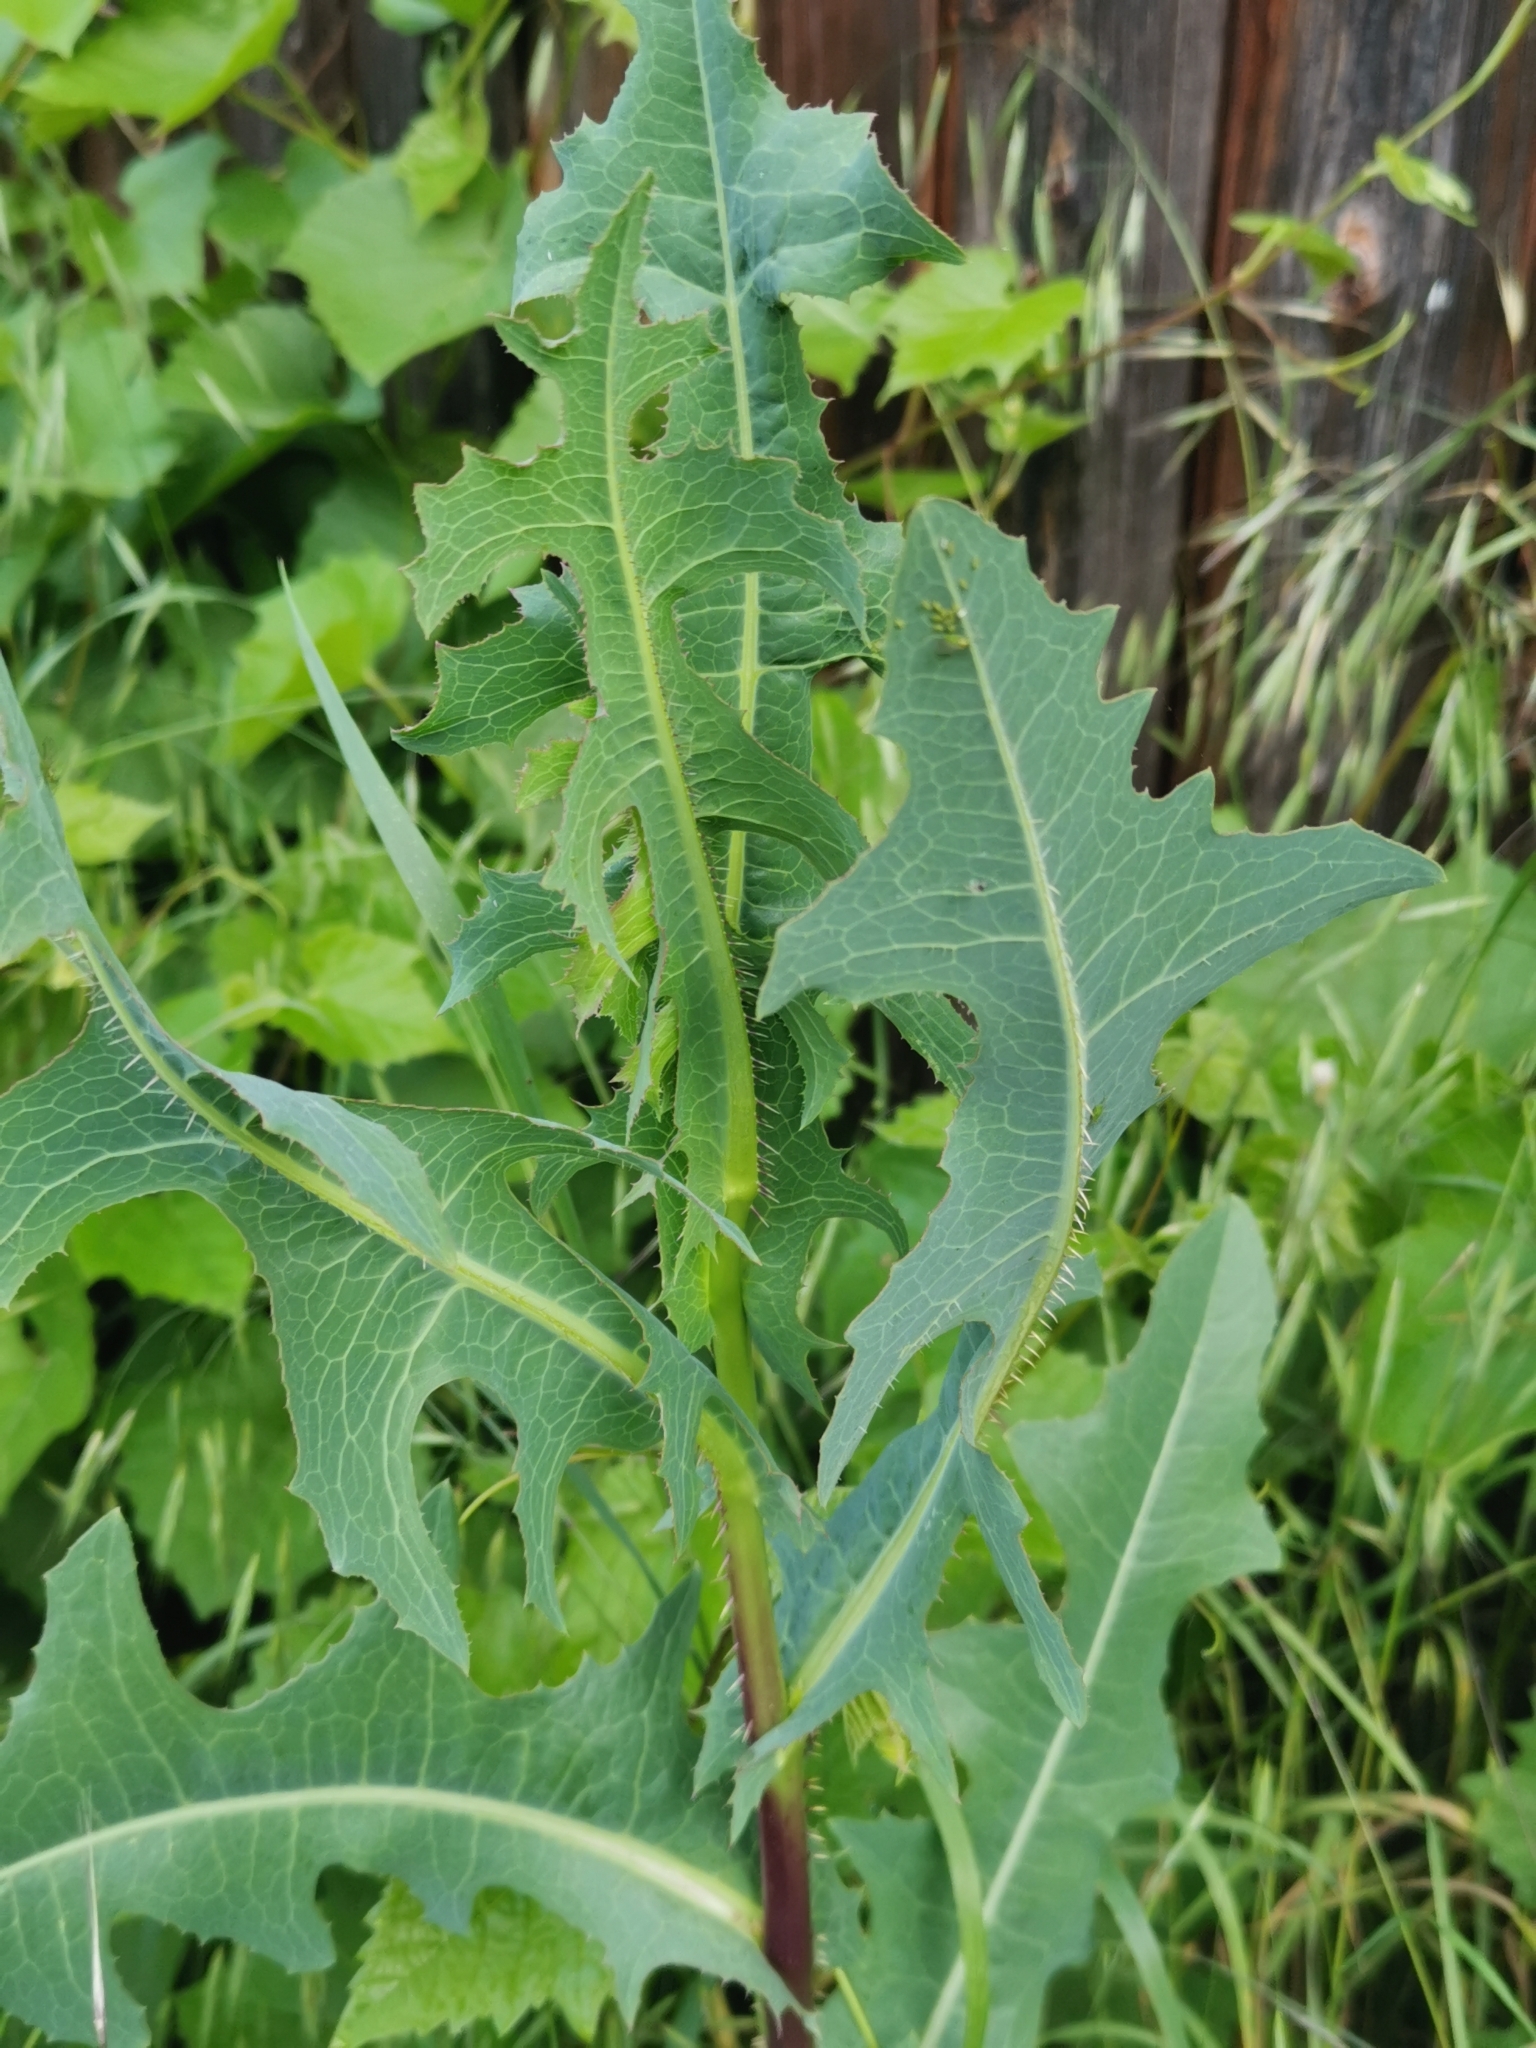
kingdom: Plantae
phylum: Tracheophyta
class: Magnoliopsida
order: Asterales
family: Asteraceae
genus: Lactuca
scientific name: Lactuca serriola
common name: Prickly lettuce
